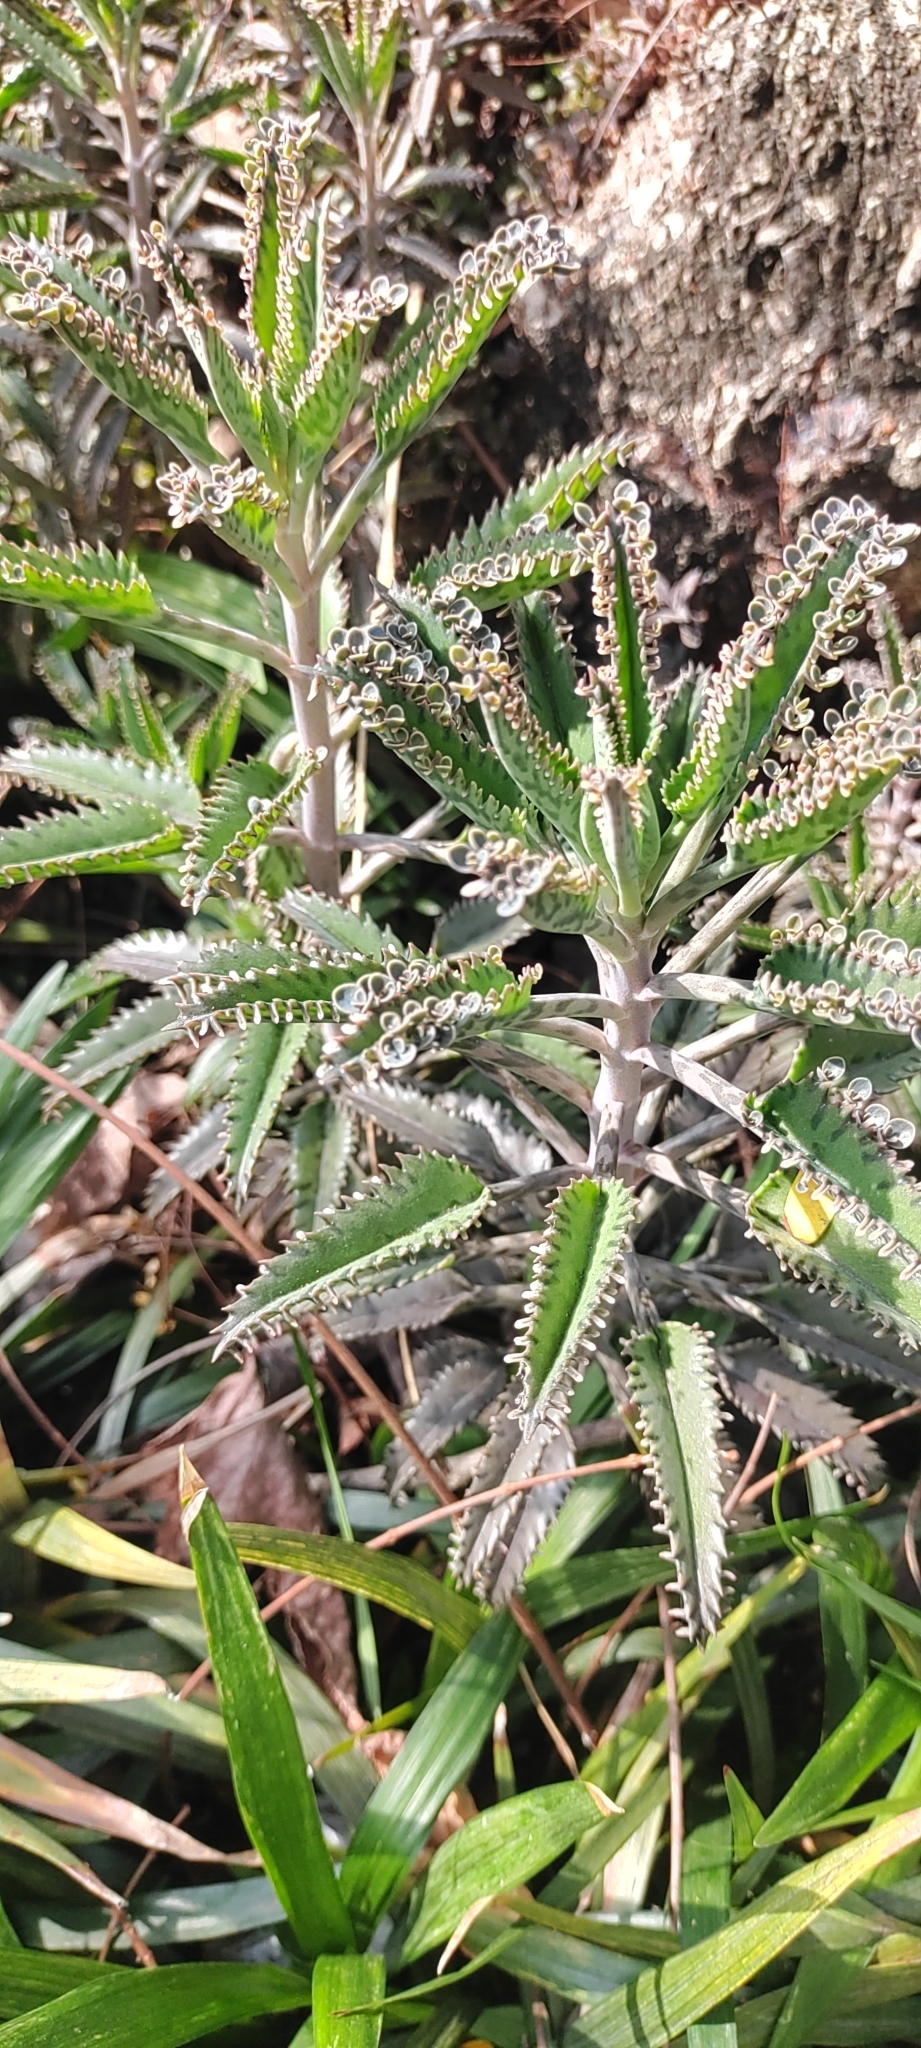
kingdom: Plantae
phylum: Tracheophyta
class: Magnoliopsida
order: Saxifragales
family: Crassulaceae
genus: Kalanchoe
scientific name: Kalanchoe houghtonii
